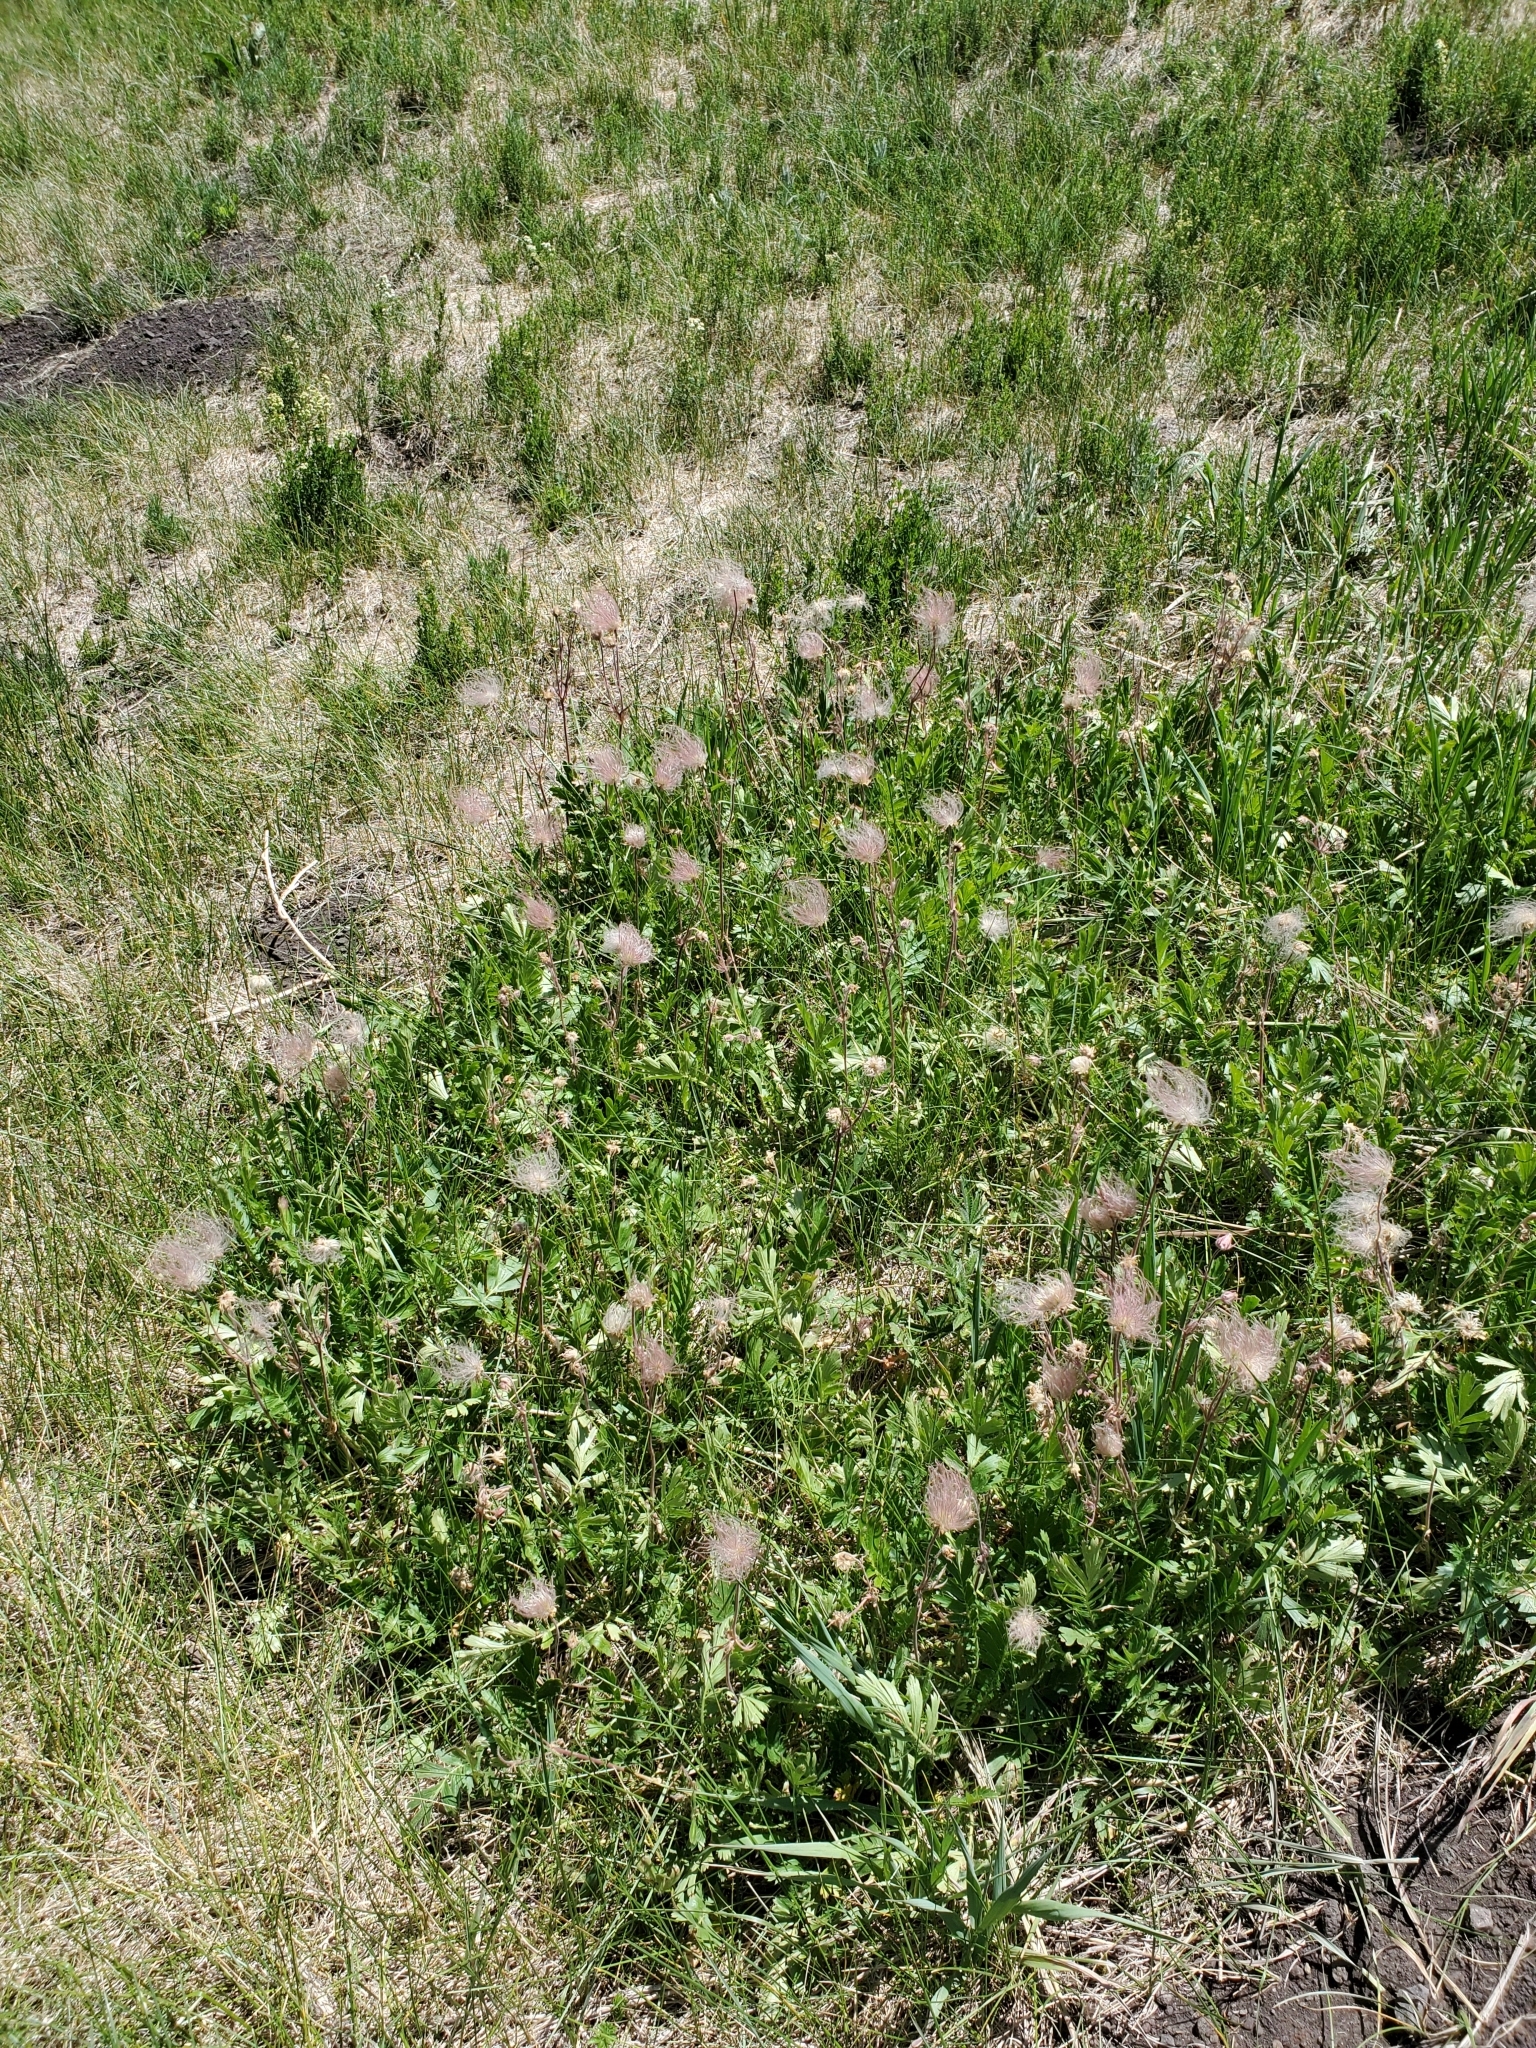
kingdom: Plantae
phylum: Tracheophyta
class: Magnoliopsida
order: Rosales
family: Rosaceae
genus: Geum
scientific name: Geum triflorum
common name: Old man's whiskers
